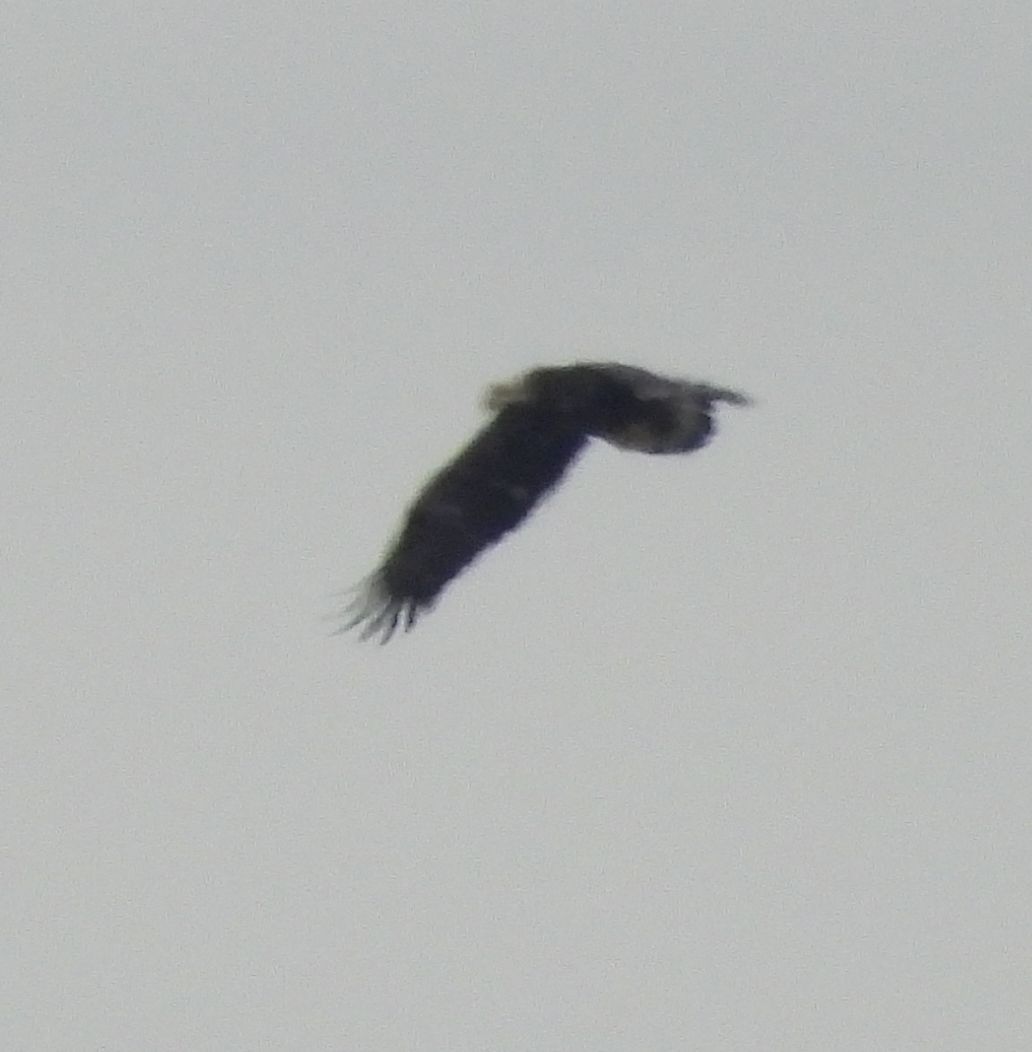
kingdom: Animalia
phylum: Chordata
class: Aves
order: Accipitriformes
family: Accipitridae
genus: Haliaeetus
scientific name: Haliaeetus leucocephalus
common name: Bald eagle
